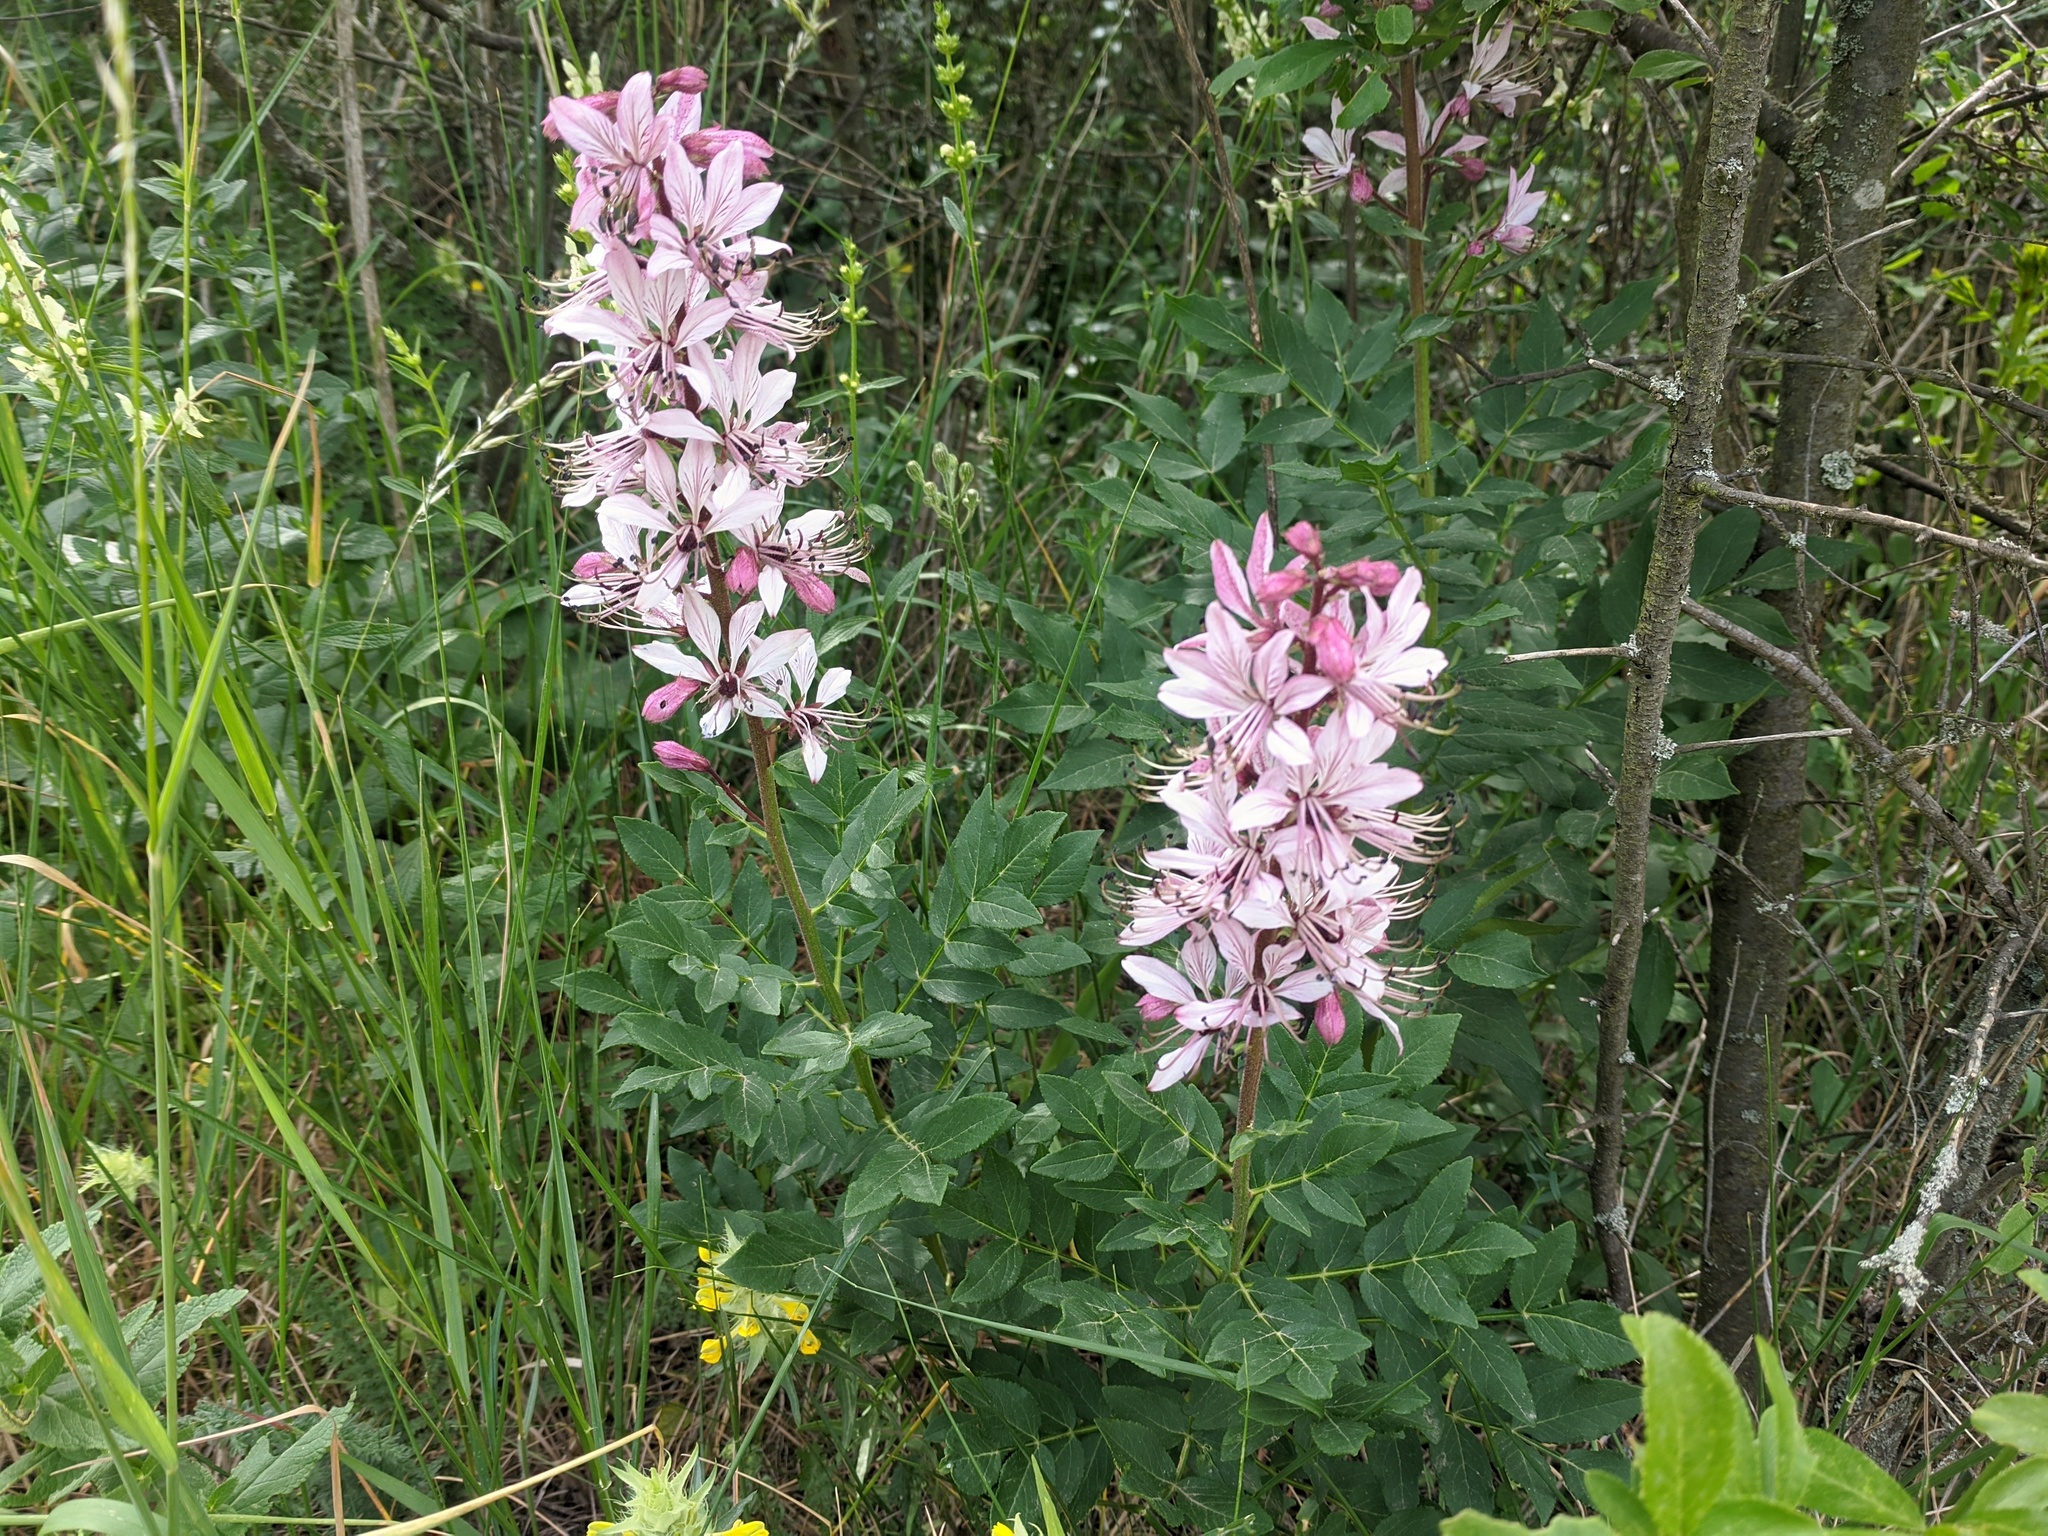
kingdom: Plantae
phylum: Tracheophyta
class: Magnoliopsida
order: Sapindales
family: Rutaceae
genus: Dictamnus
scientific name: Dictamnus albus
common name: Gasplant
